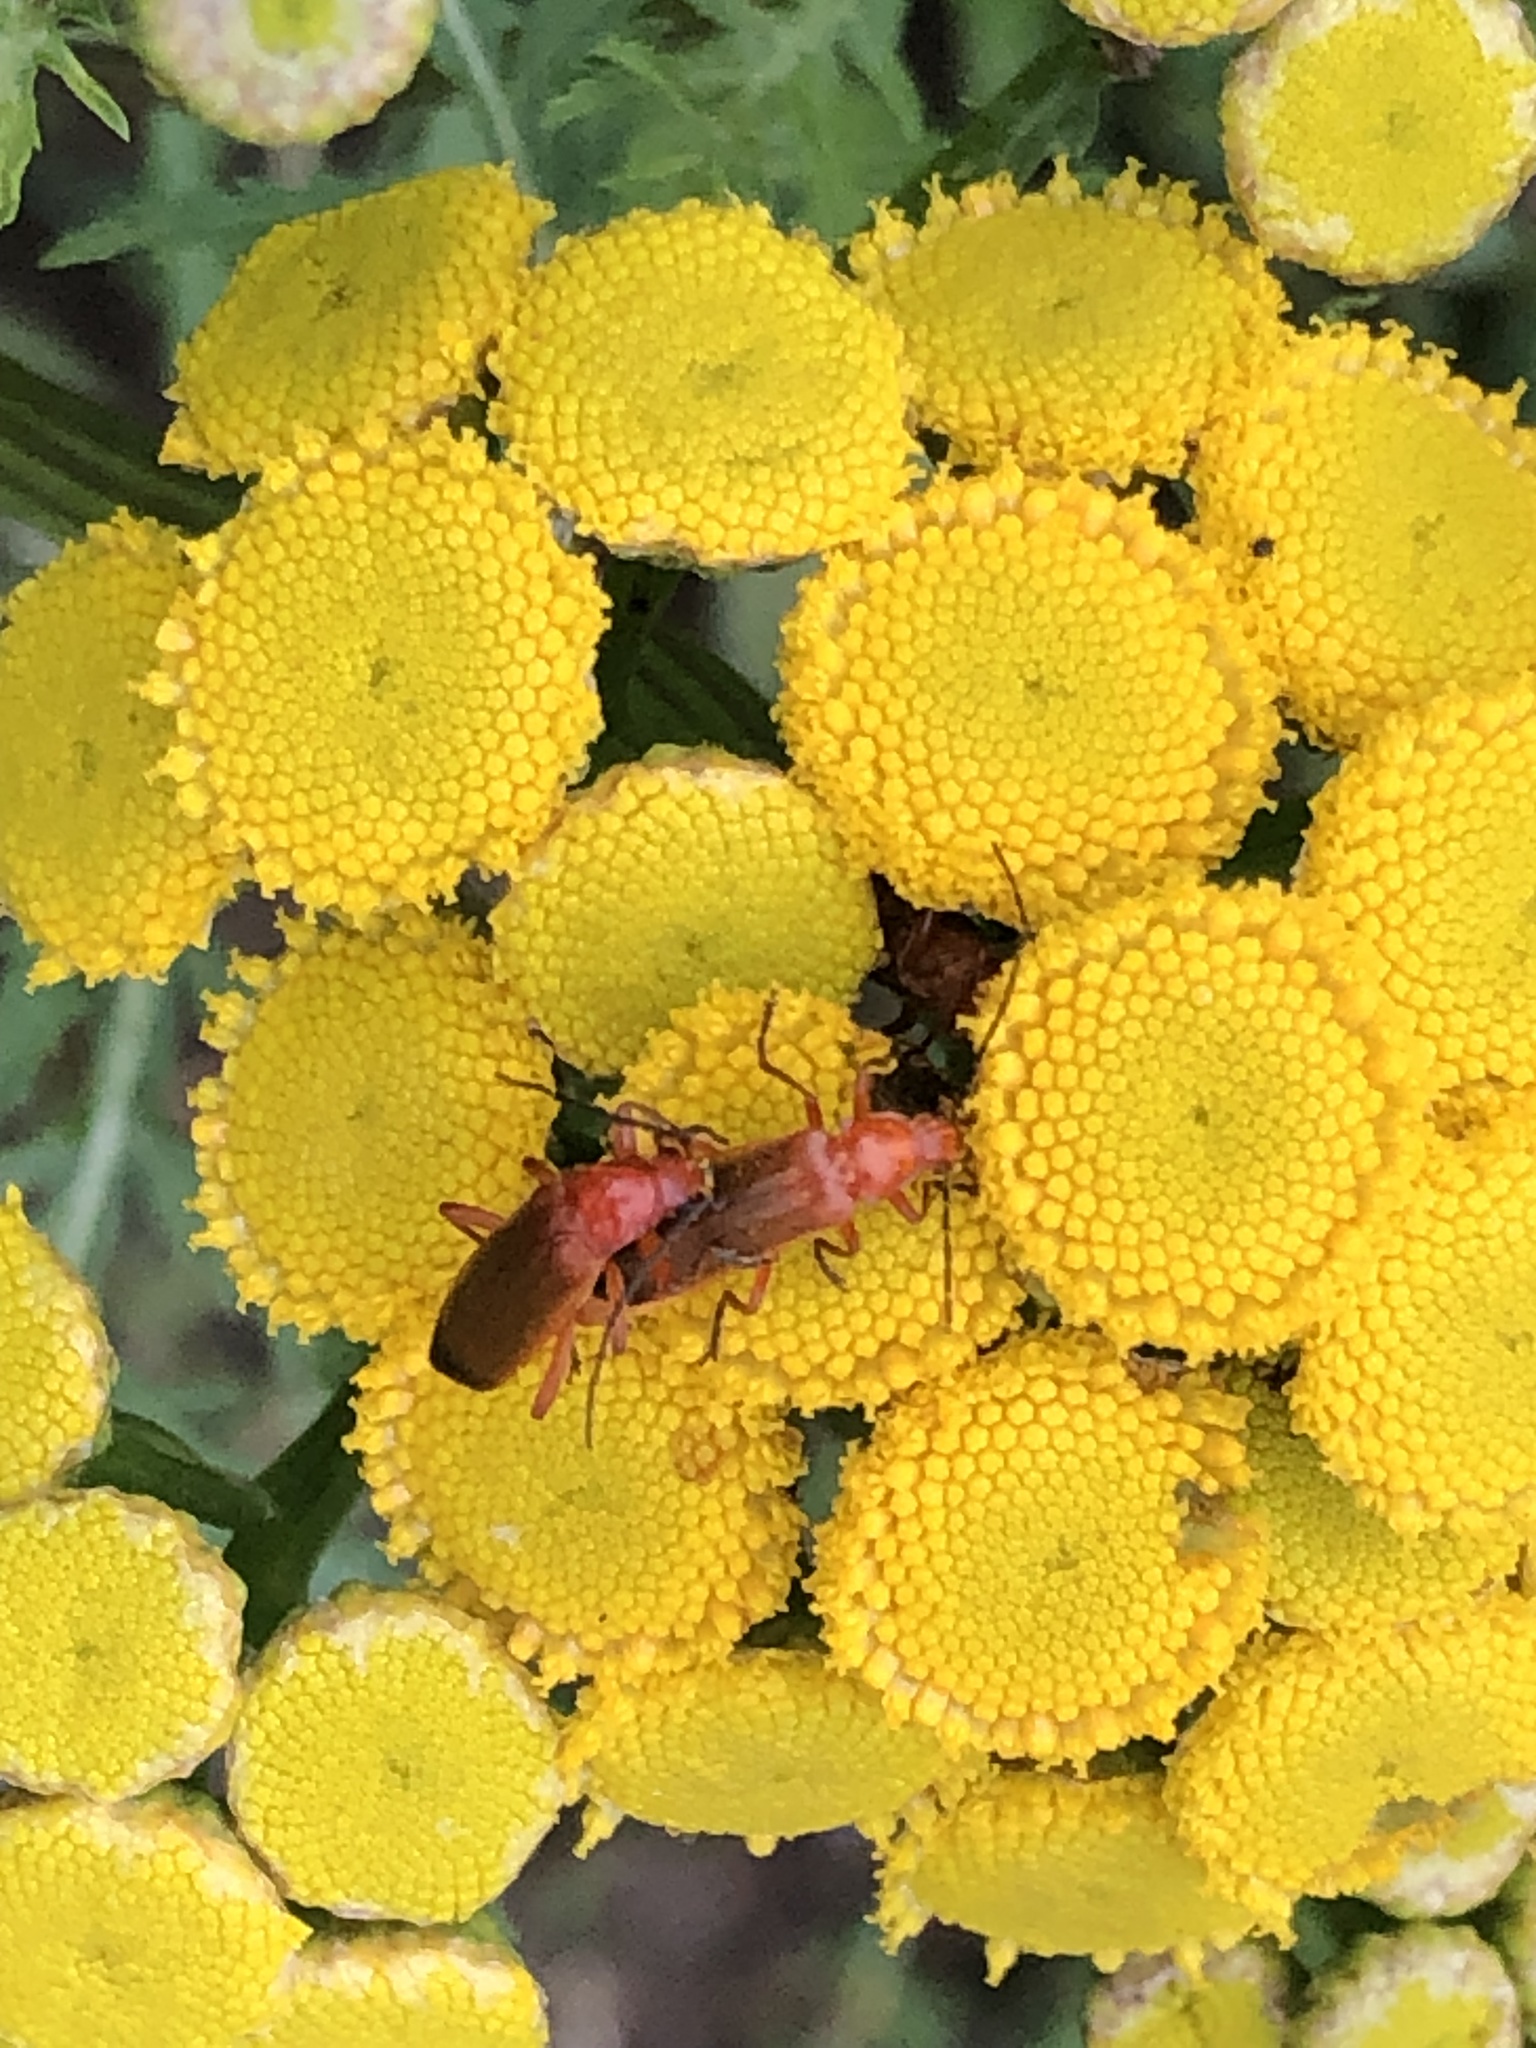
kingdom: Animalia
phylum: Arthropoda
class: Insecta
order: Coleoptera
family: Cantharidae
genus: Rhagonycha
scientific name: Rhagonycha fulva
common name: Common red soldier beetle
